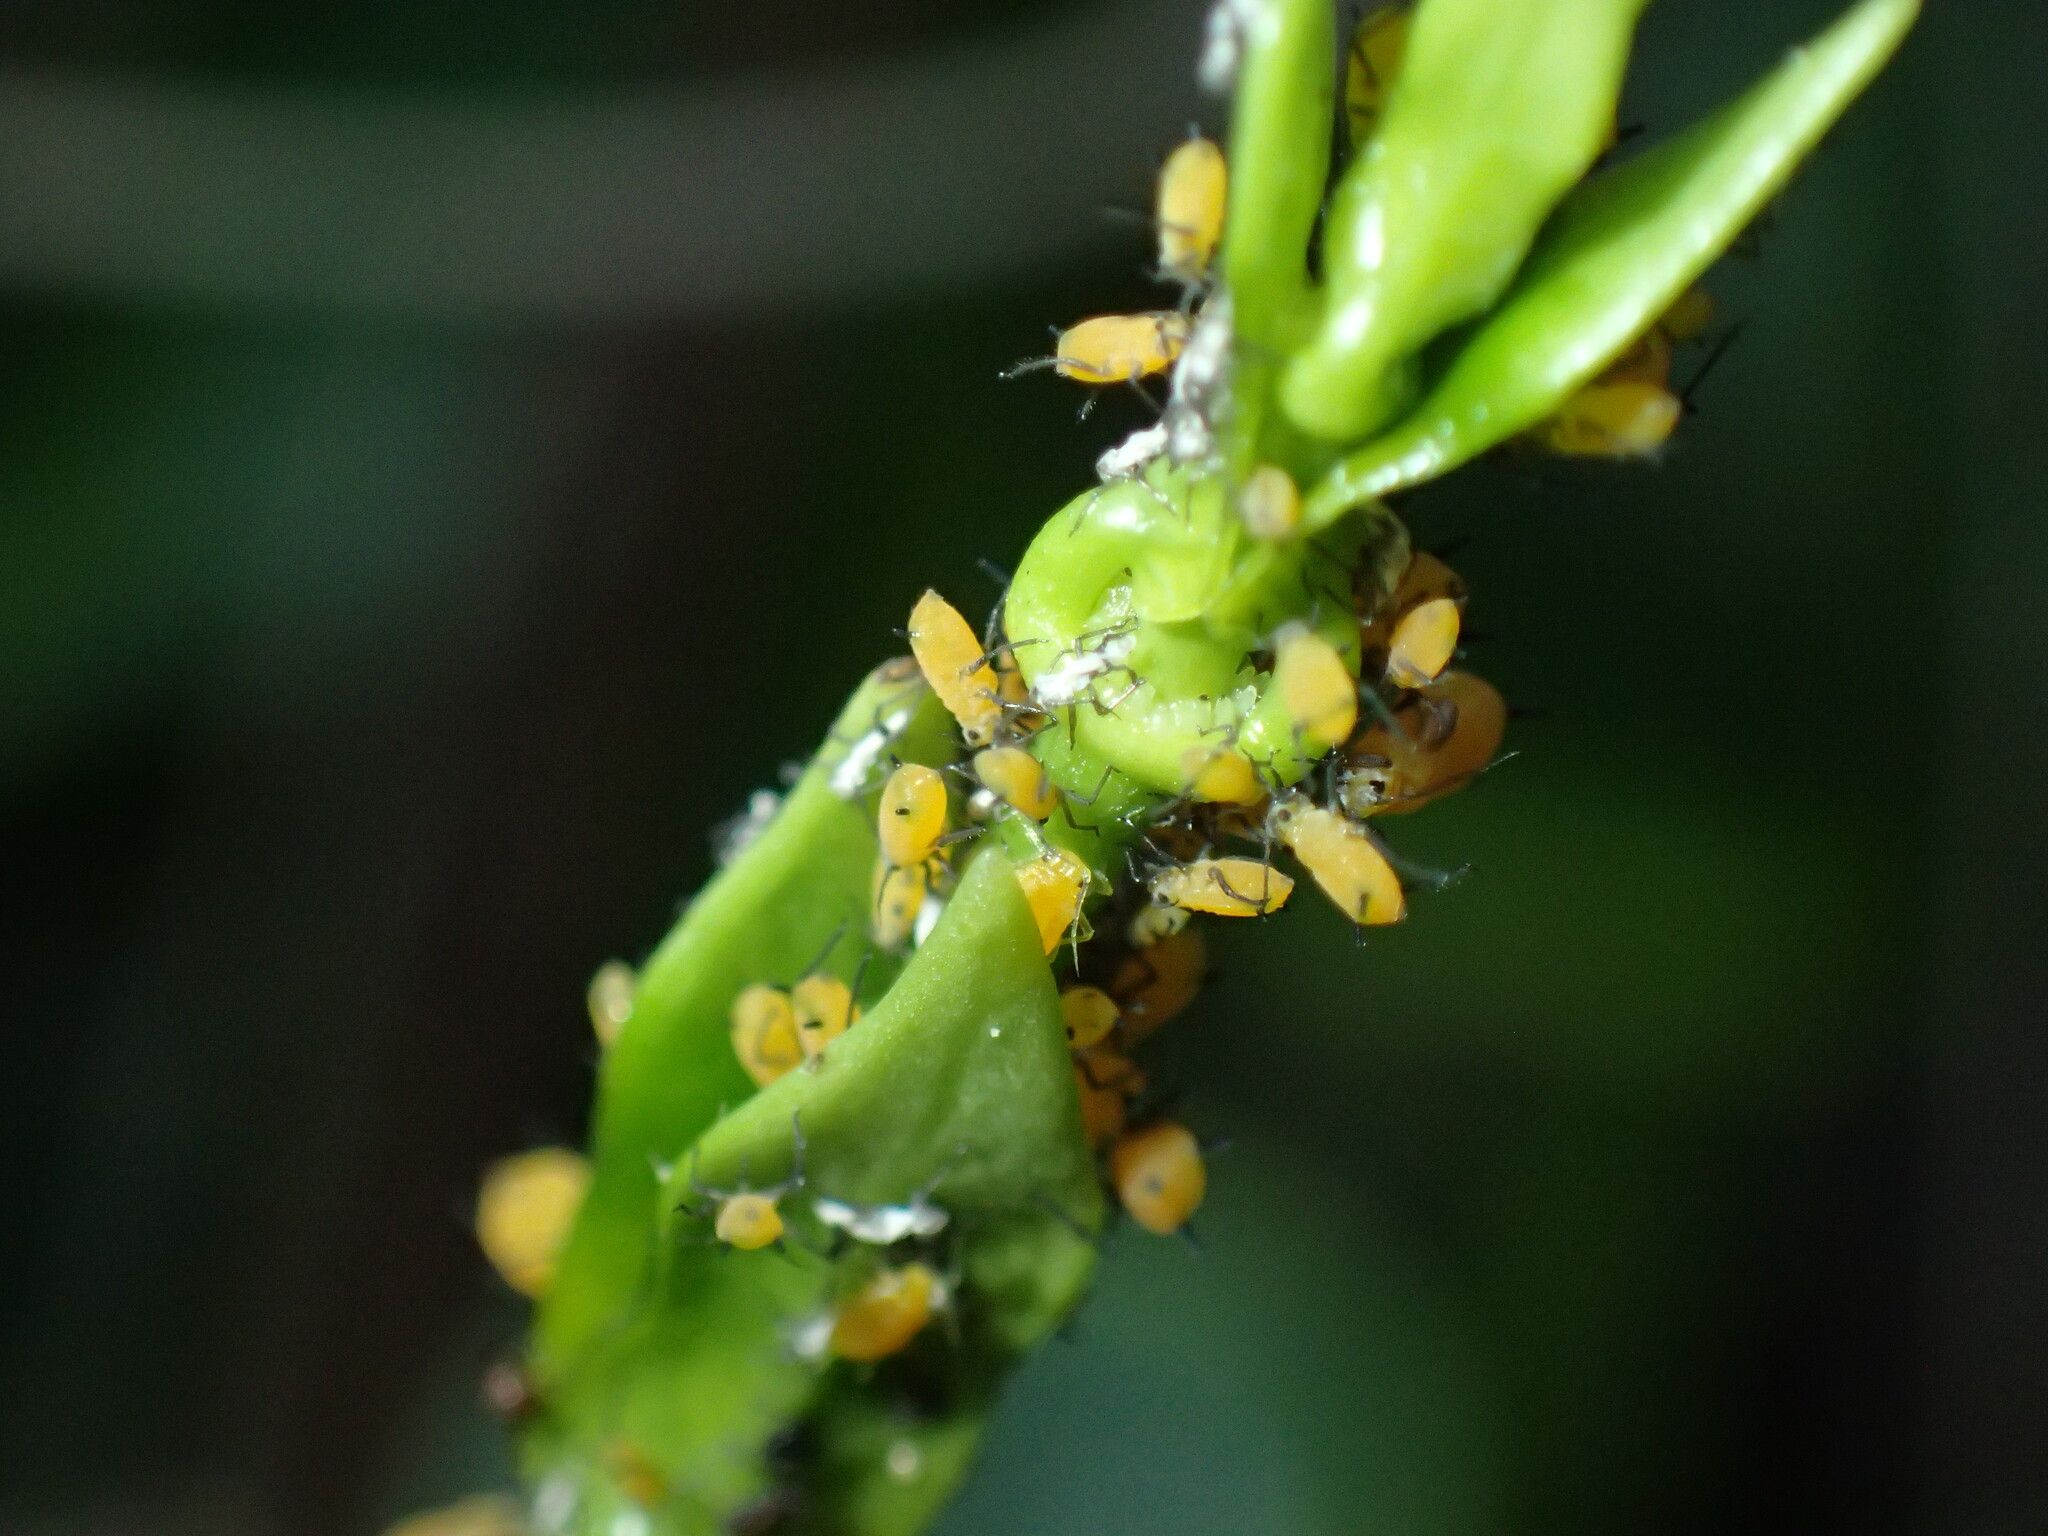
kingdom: Animalia
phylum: Arthropoda
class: Insecta
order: Hemiptera
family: Aphididae
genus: Aphis
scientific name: Aphis nerii
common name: Oleander aphid
